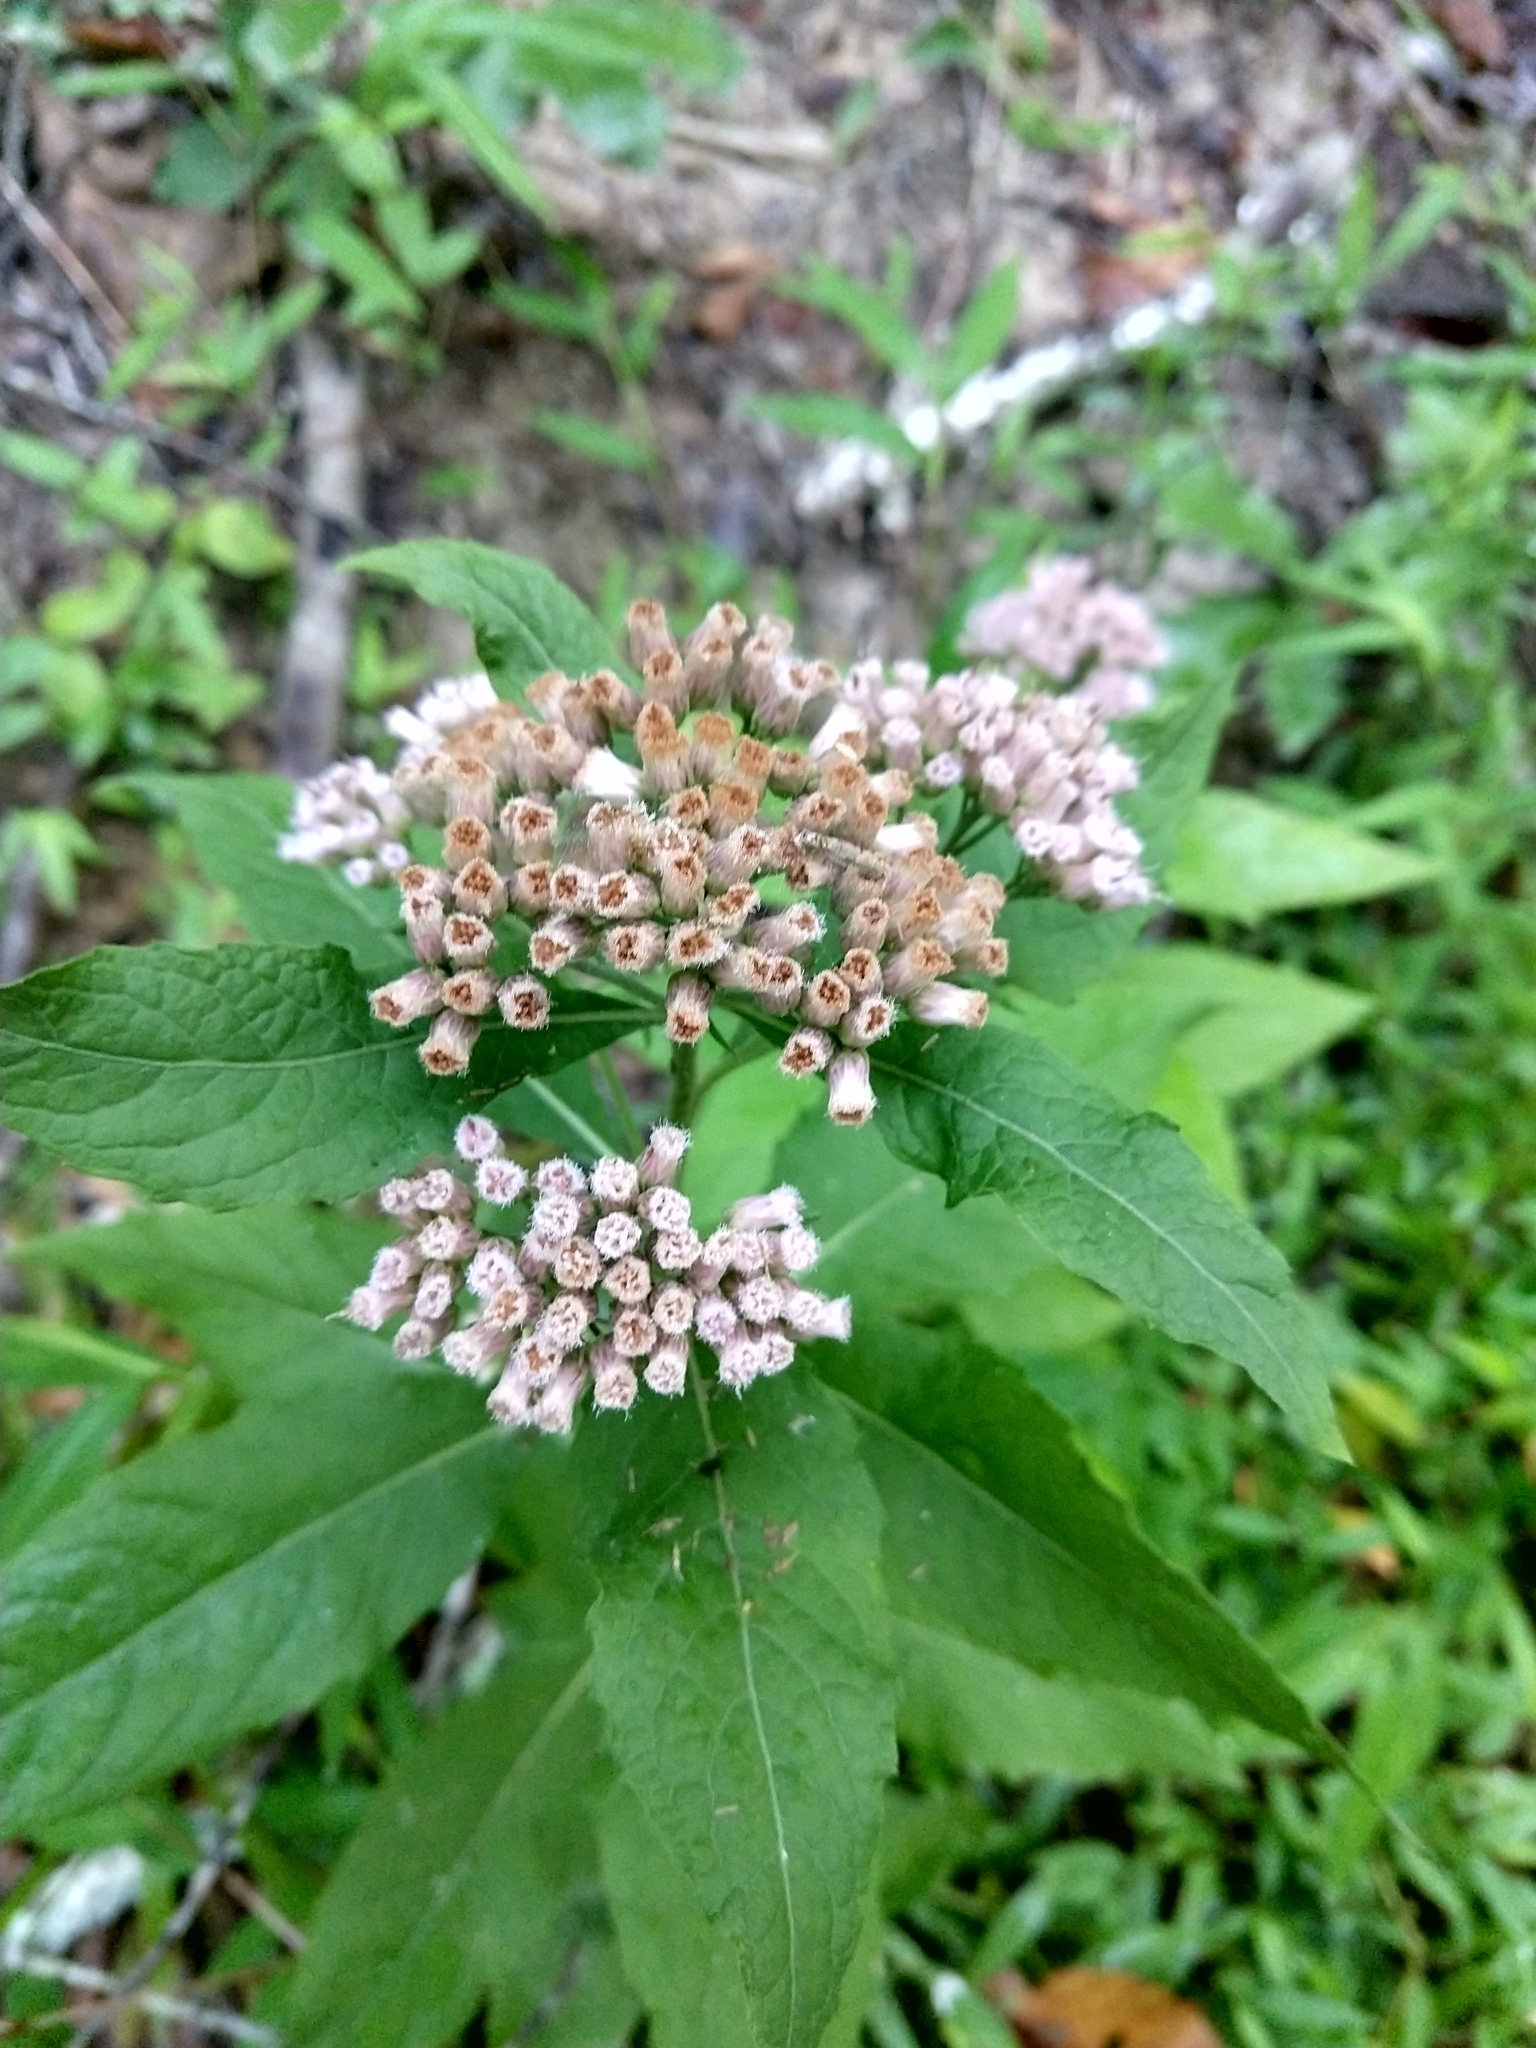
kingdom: Plantae
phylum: Tracheophyta
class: Magnoliopsida
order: Asterales
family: Asteraceae
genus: Pluchea
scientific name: Pluchea camphorata
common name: Camphor pluchea
